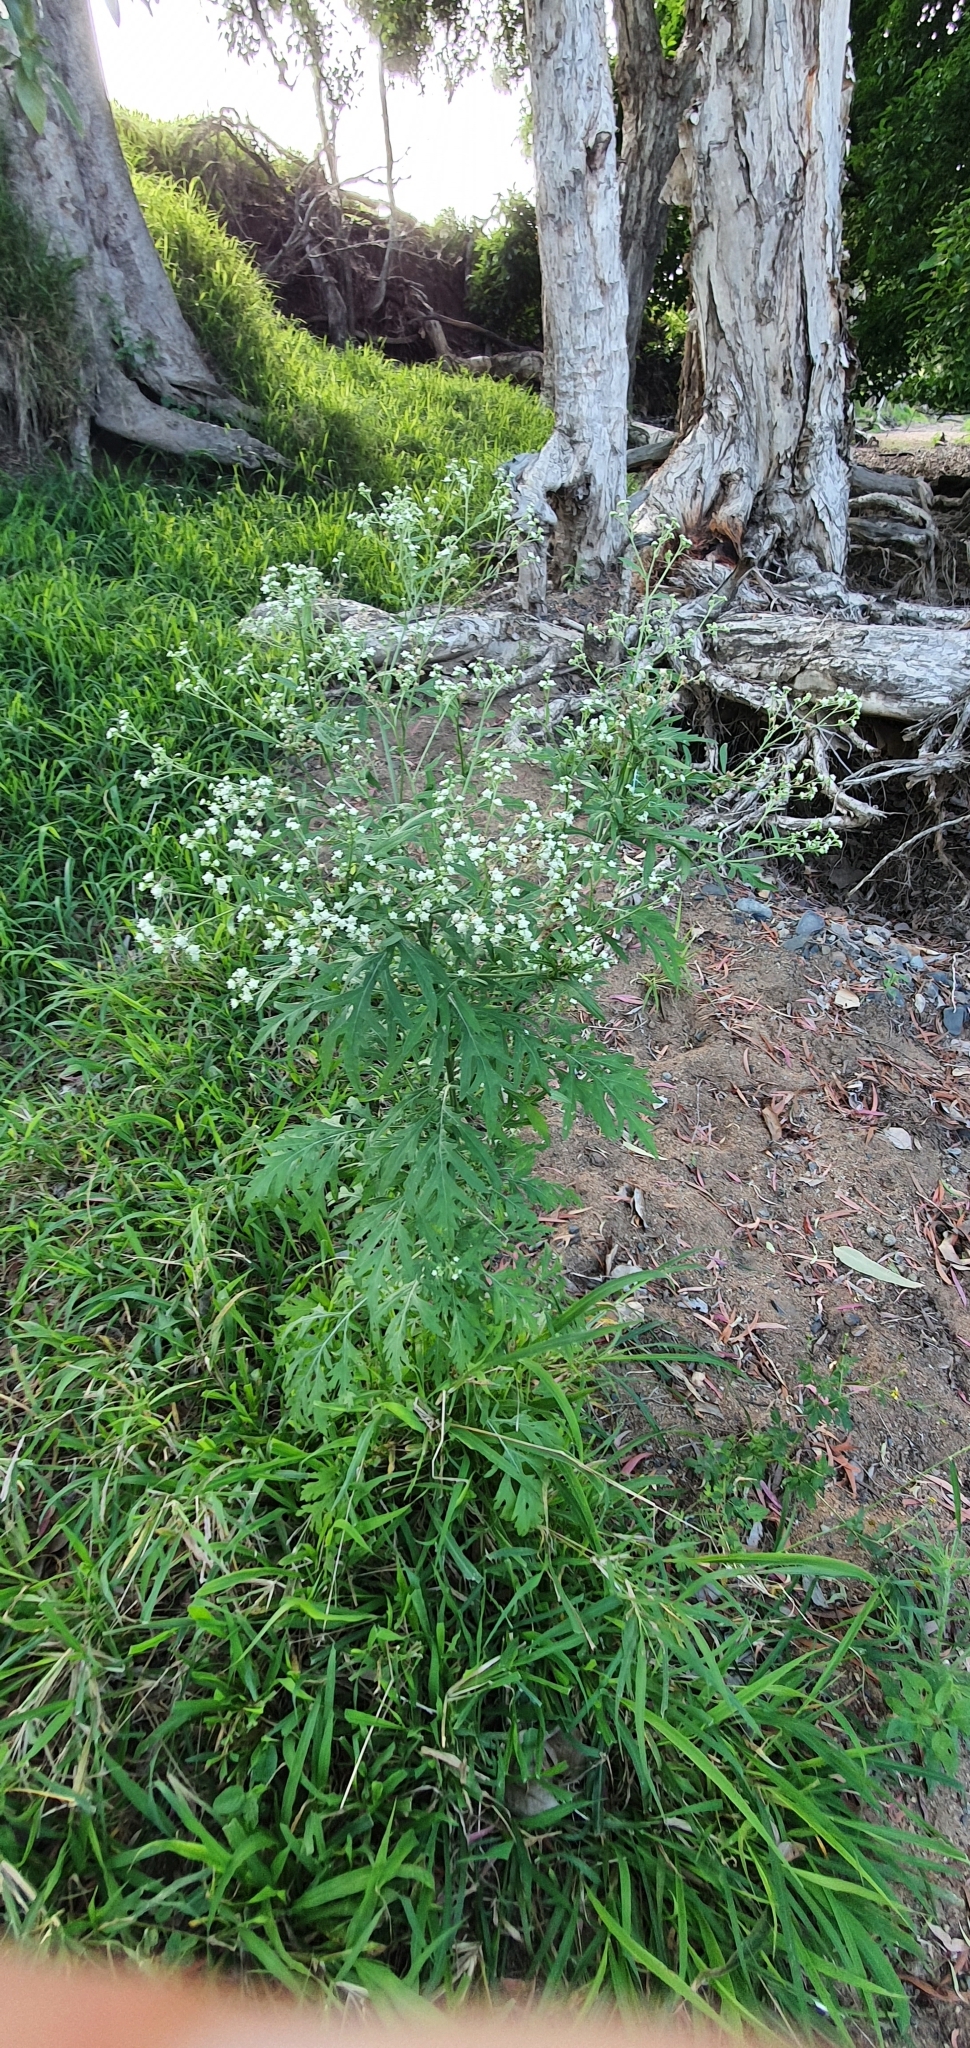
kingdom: Plantae
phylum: Tracheophyta
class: Magnoliopsida
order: Asterales
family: Asteraceae
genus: Parthenium
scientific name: Parthenium hysterophorus
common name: Santa maria feverfew
